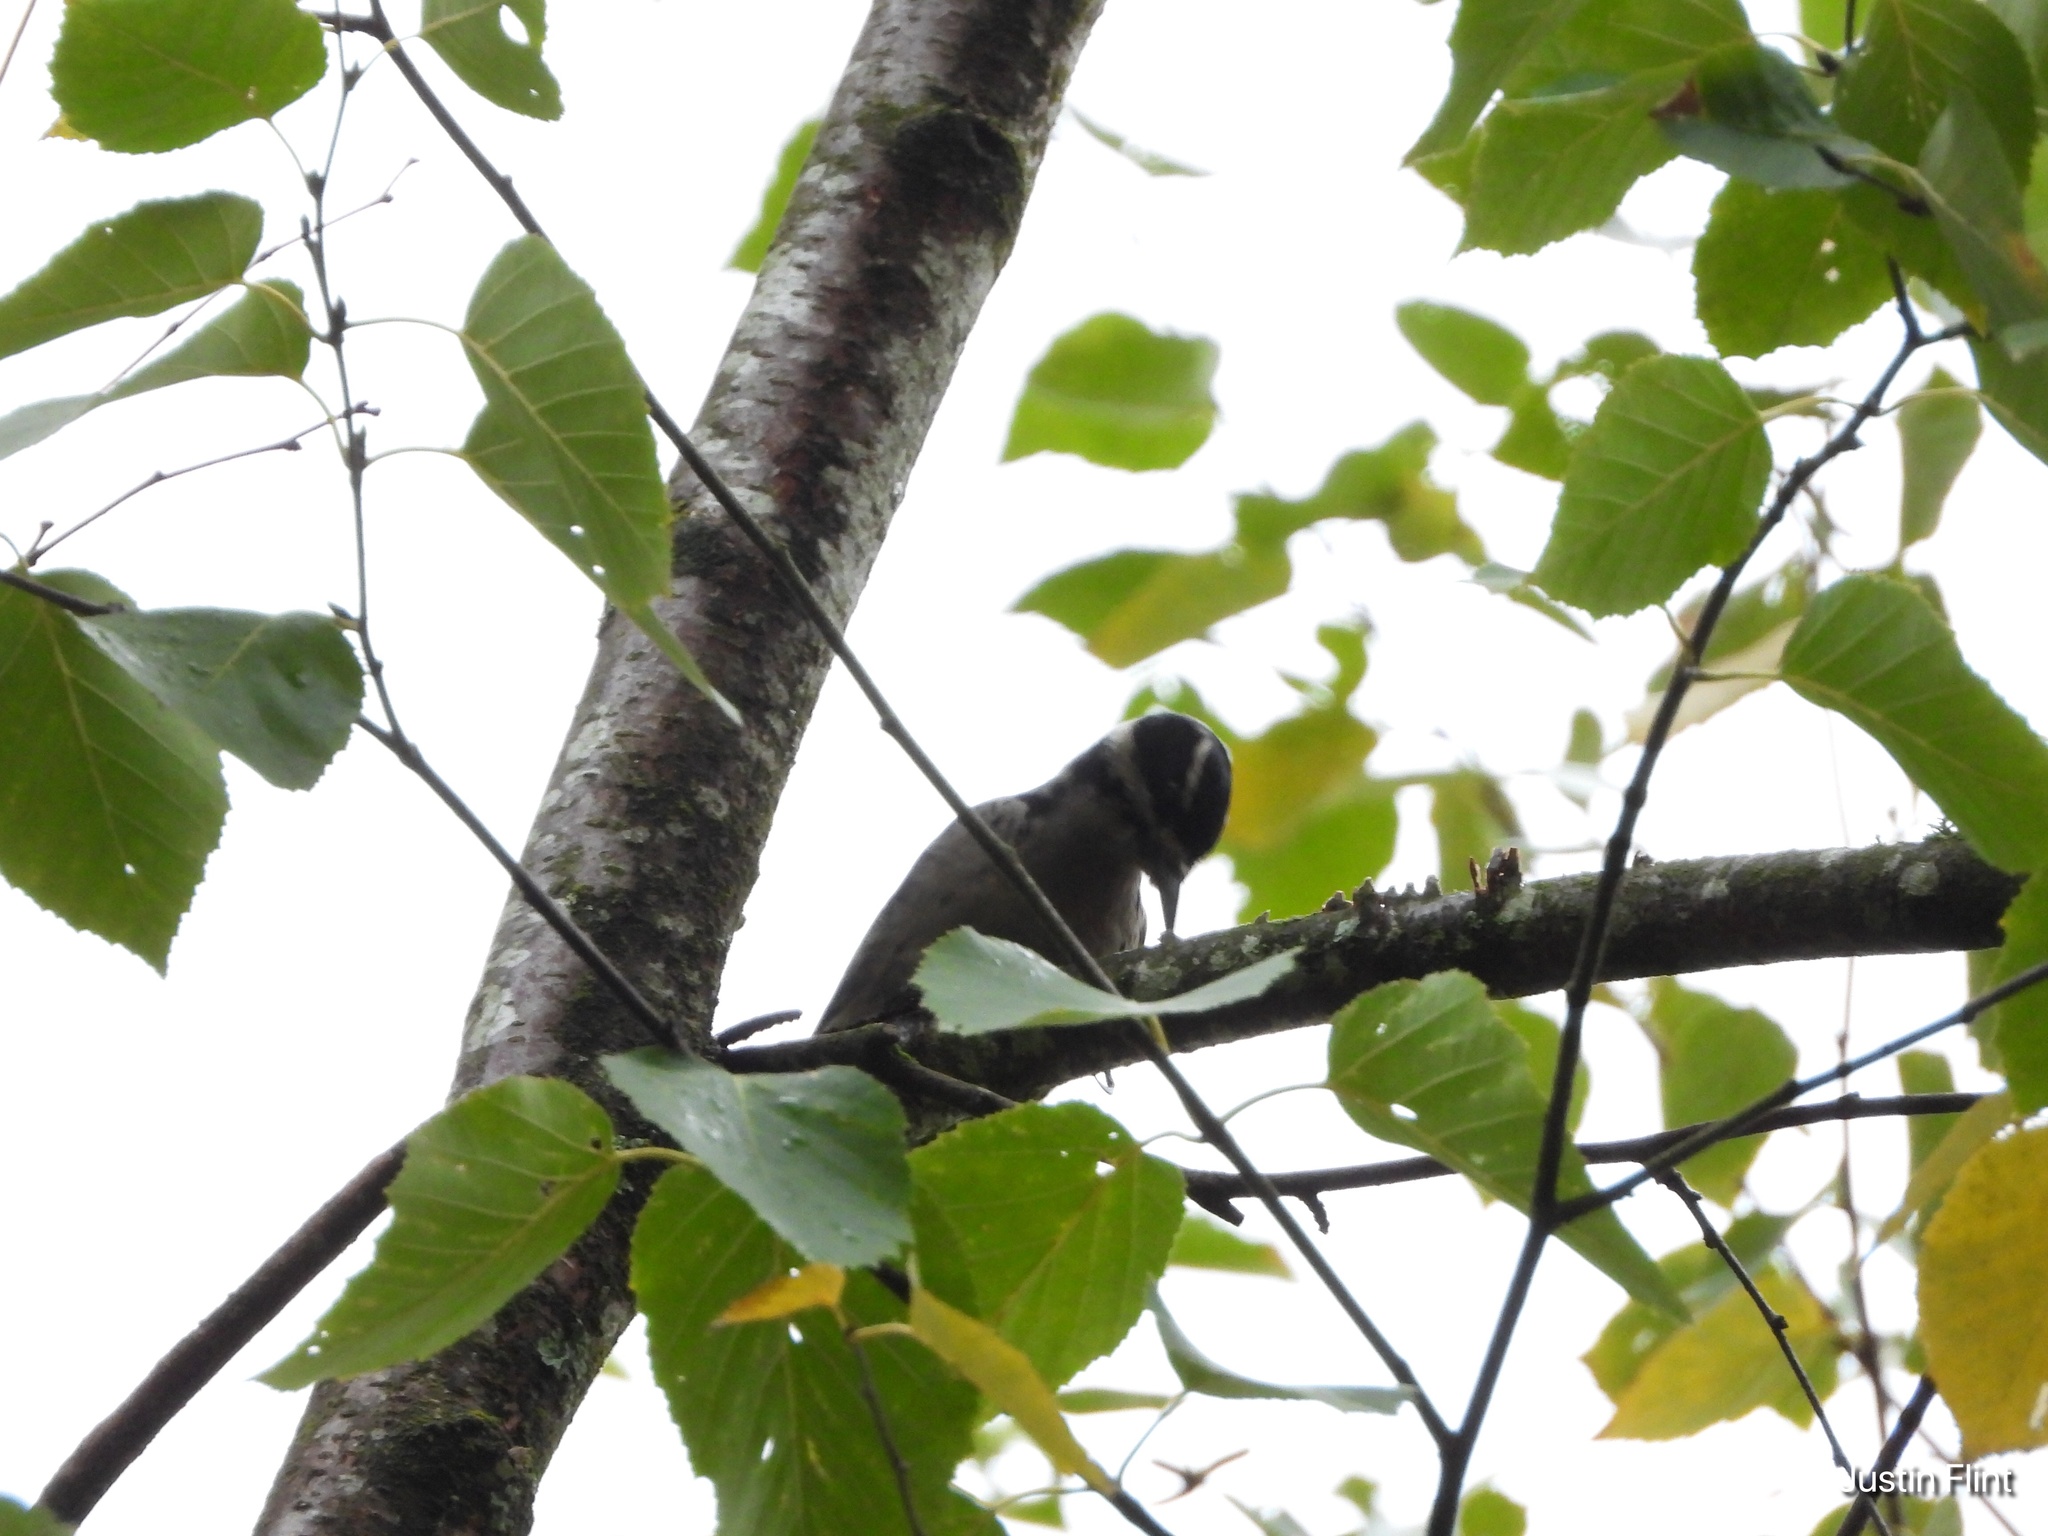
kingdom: Animalia
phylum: Chordata
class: Aves
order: Piciformes
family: Picidae
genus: Leuconotopicus
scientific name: Leuconotopicus villosus
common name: Hairy woodpecker
